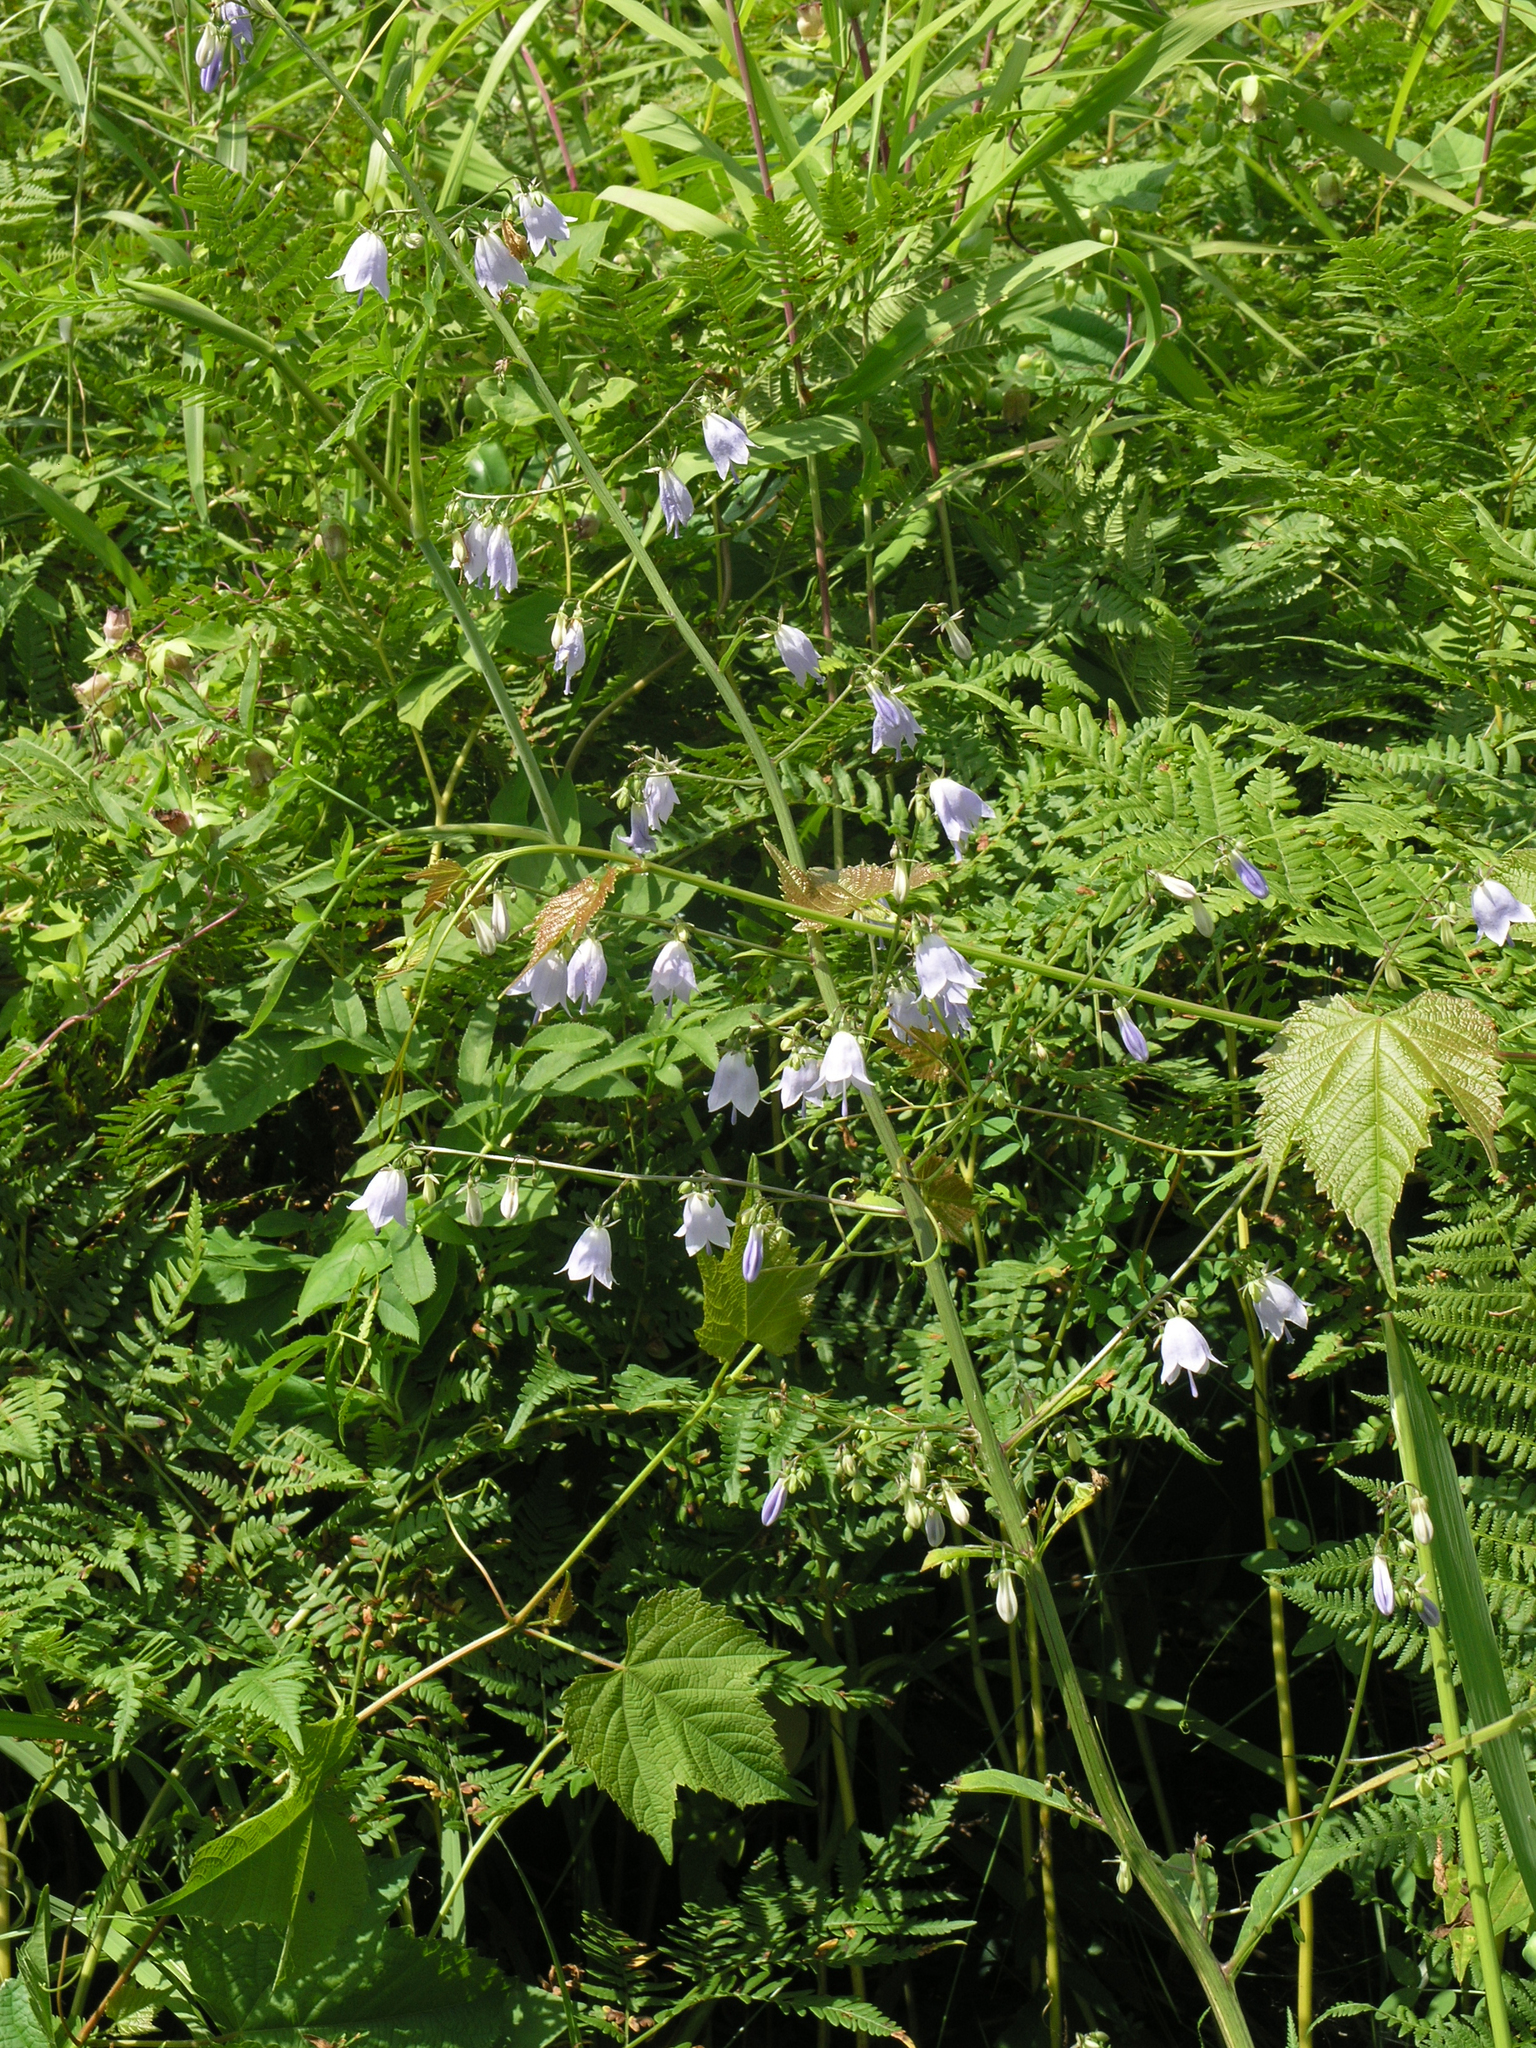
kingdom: Plantae
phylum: Tracheophyta
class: Magnoliopsida
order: Asterales
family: Campanulaceae
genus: Adenophora
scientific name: Adenophora pereskiifolia
